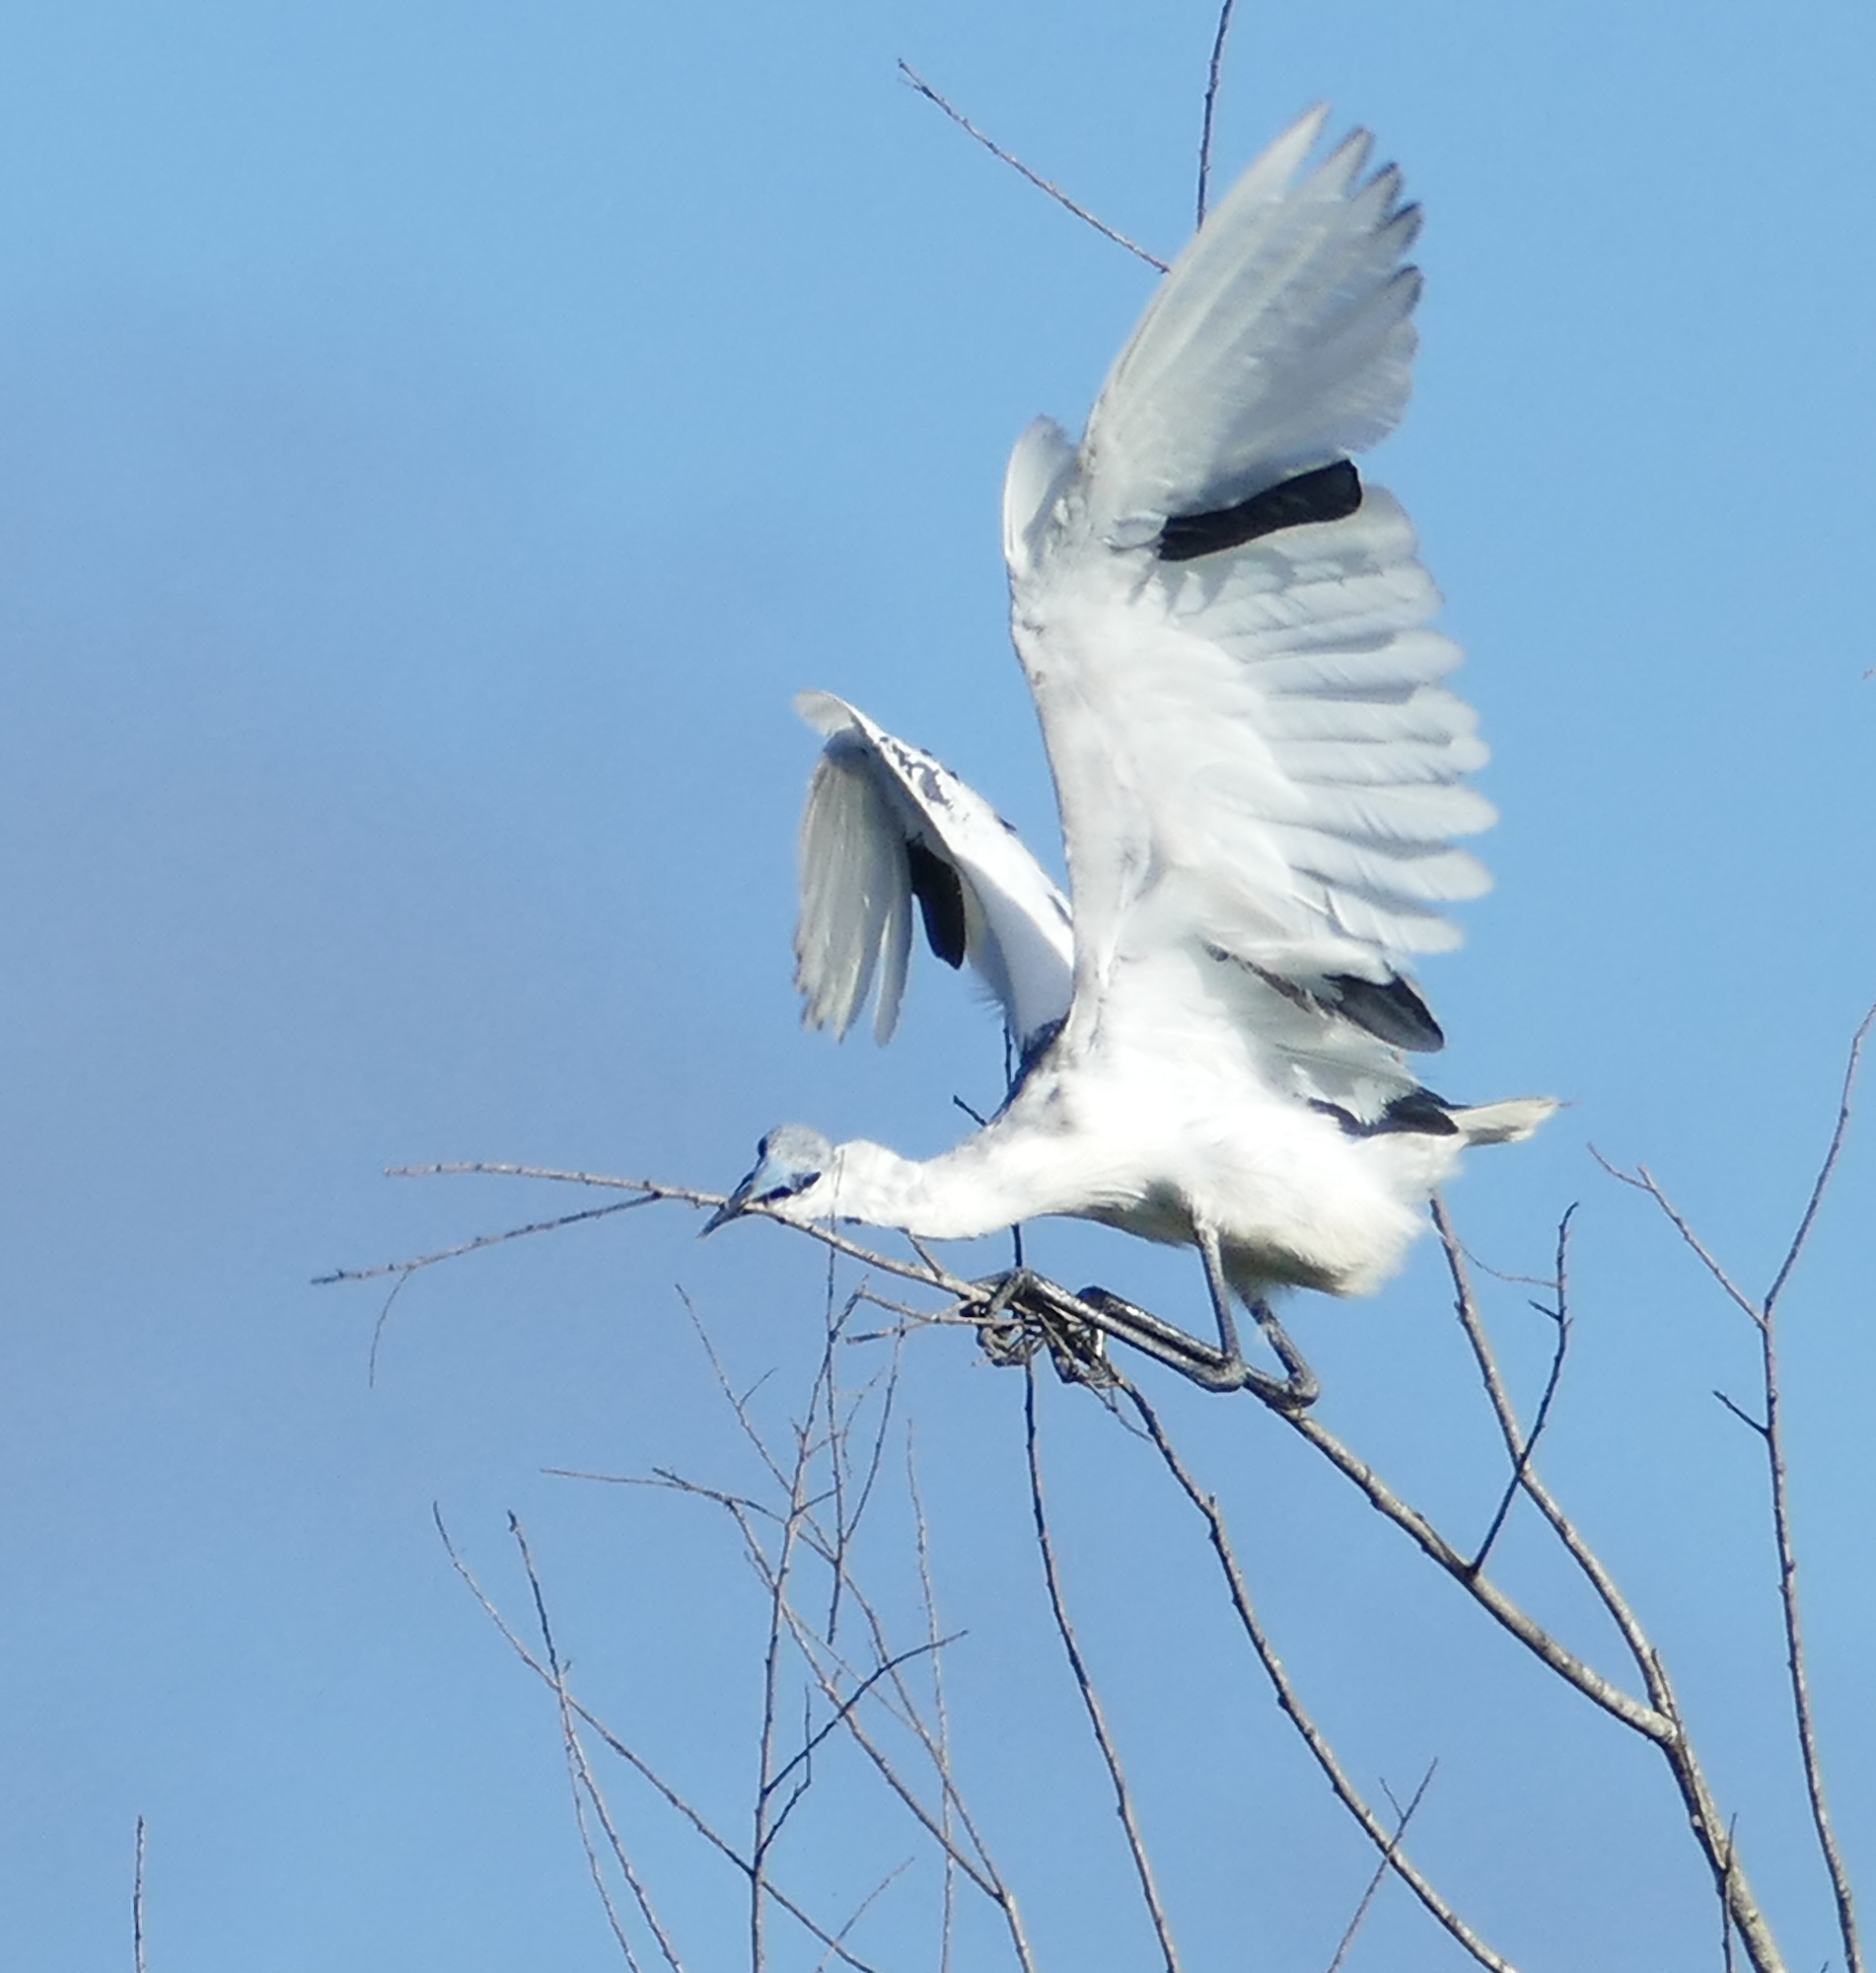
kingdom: Animalia
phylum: Chordata
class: Aves
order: Pelecaniformes
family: Ardeidae
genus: Egretta
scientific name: Egretta caerulea
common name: Little blue heron
